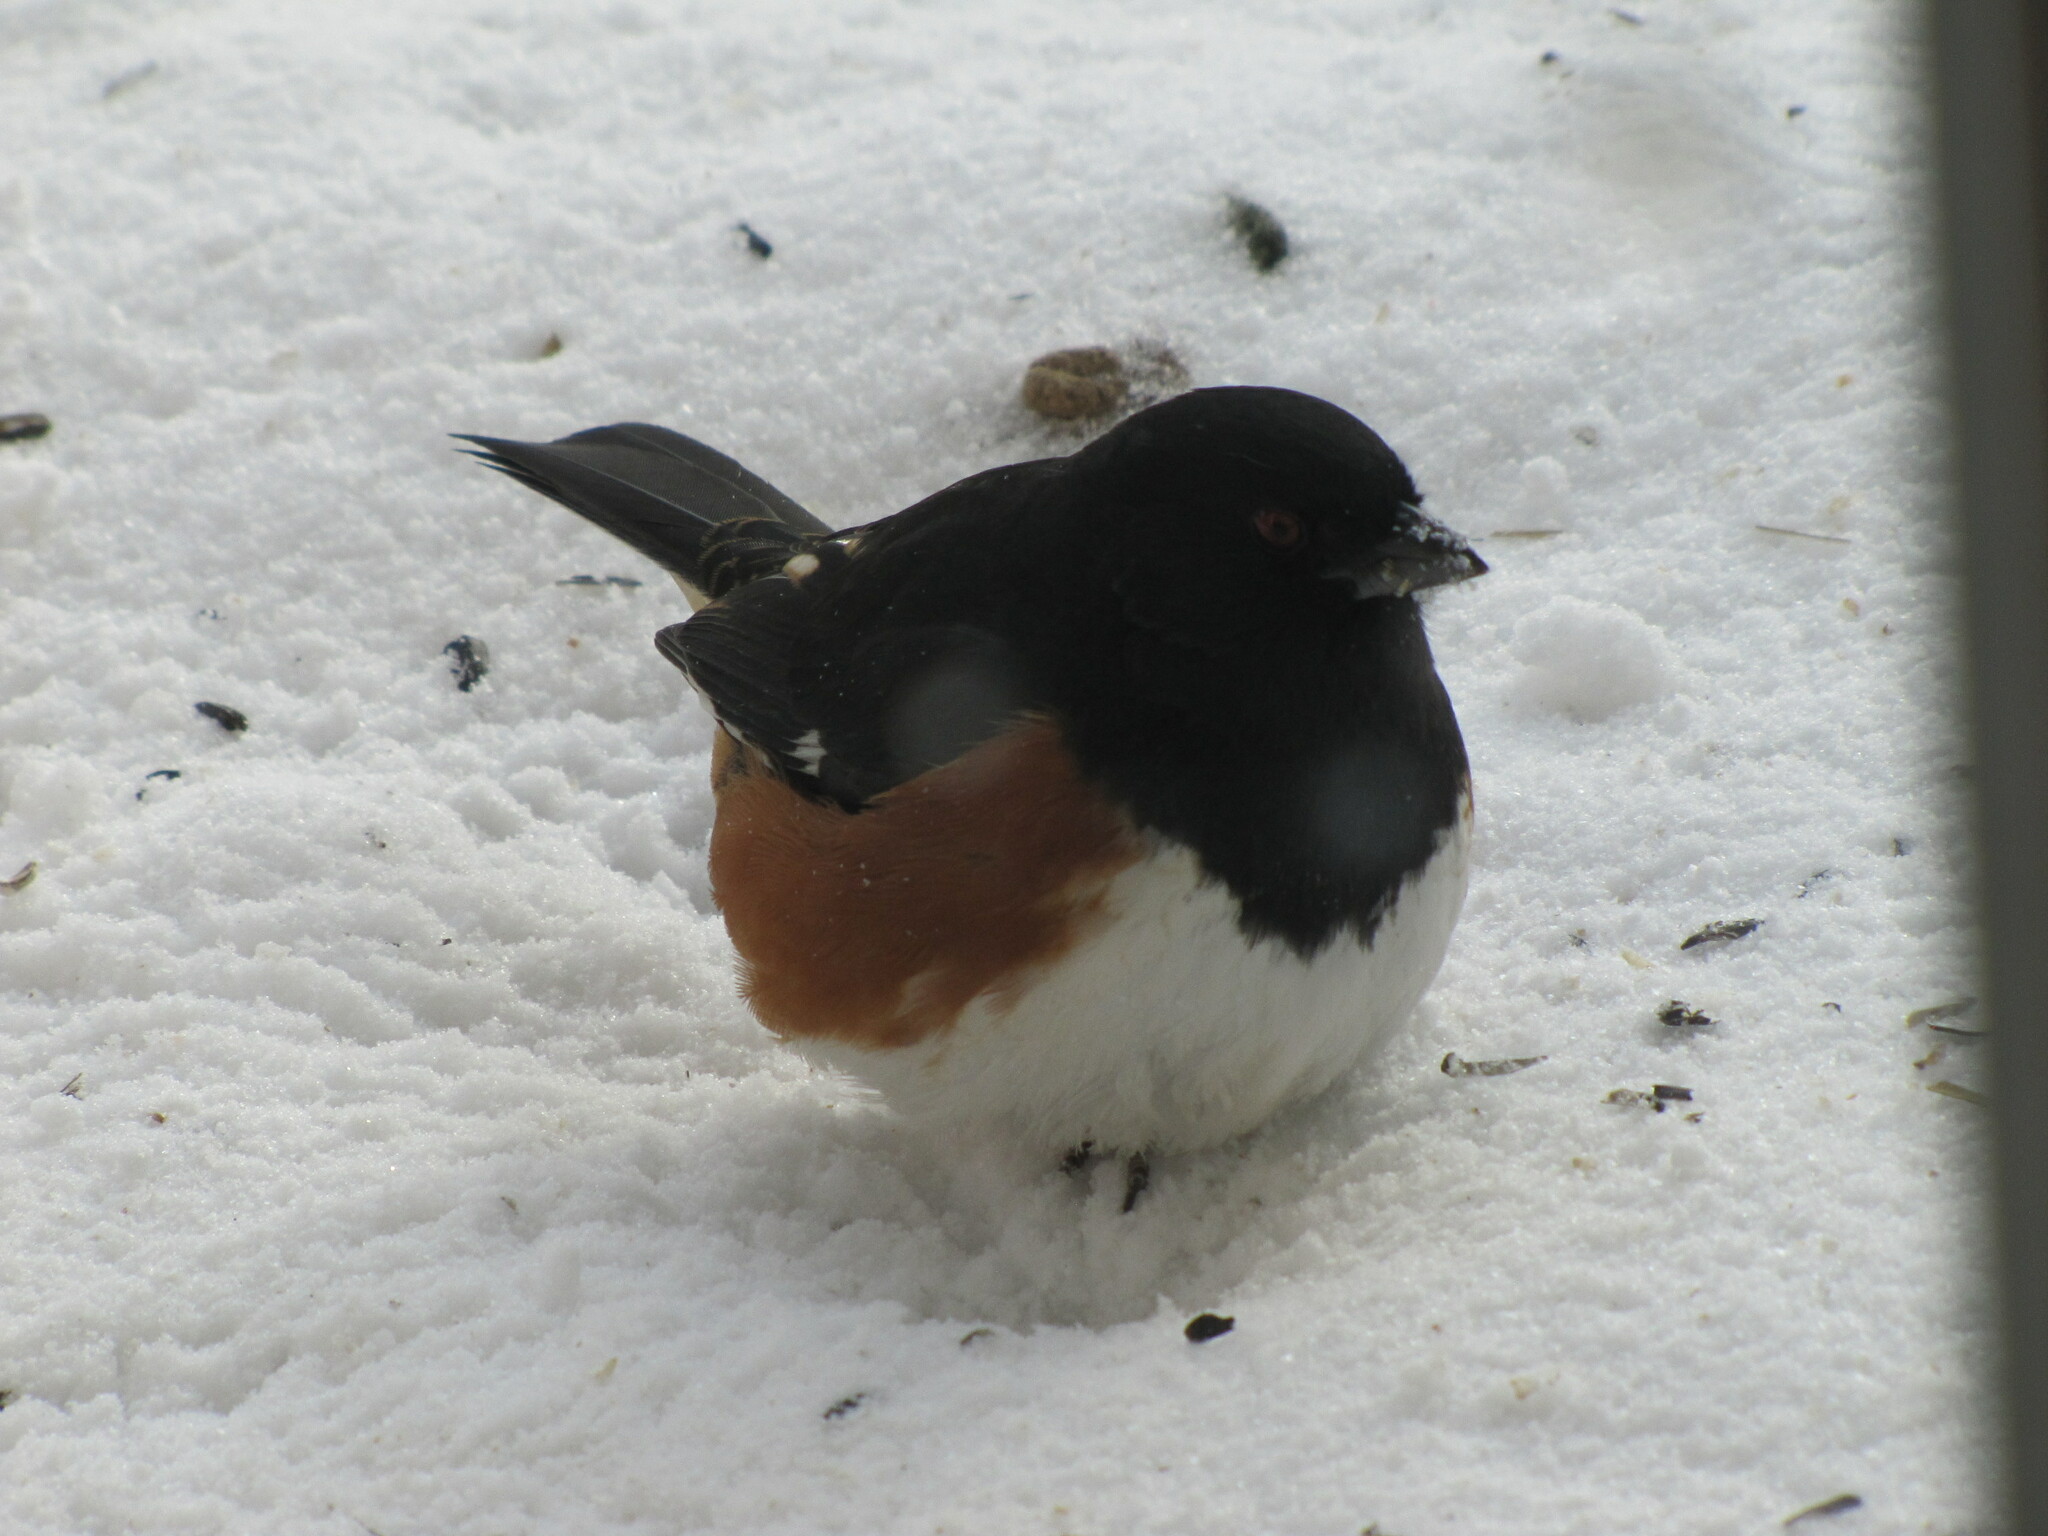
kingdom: Animalia
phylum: Chordata
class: Aves
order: Passeriformes
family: Passerellidae
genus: Pipilo
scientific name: Pipilo erythrophthalmus
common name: Eastern towhee
